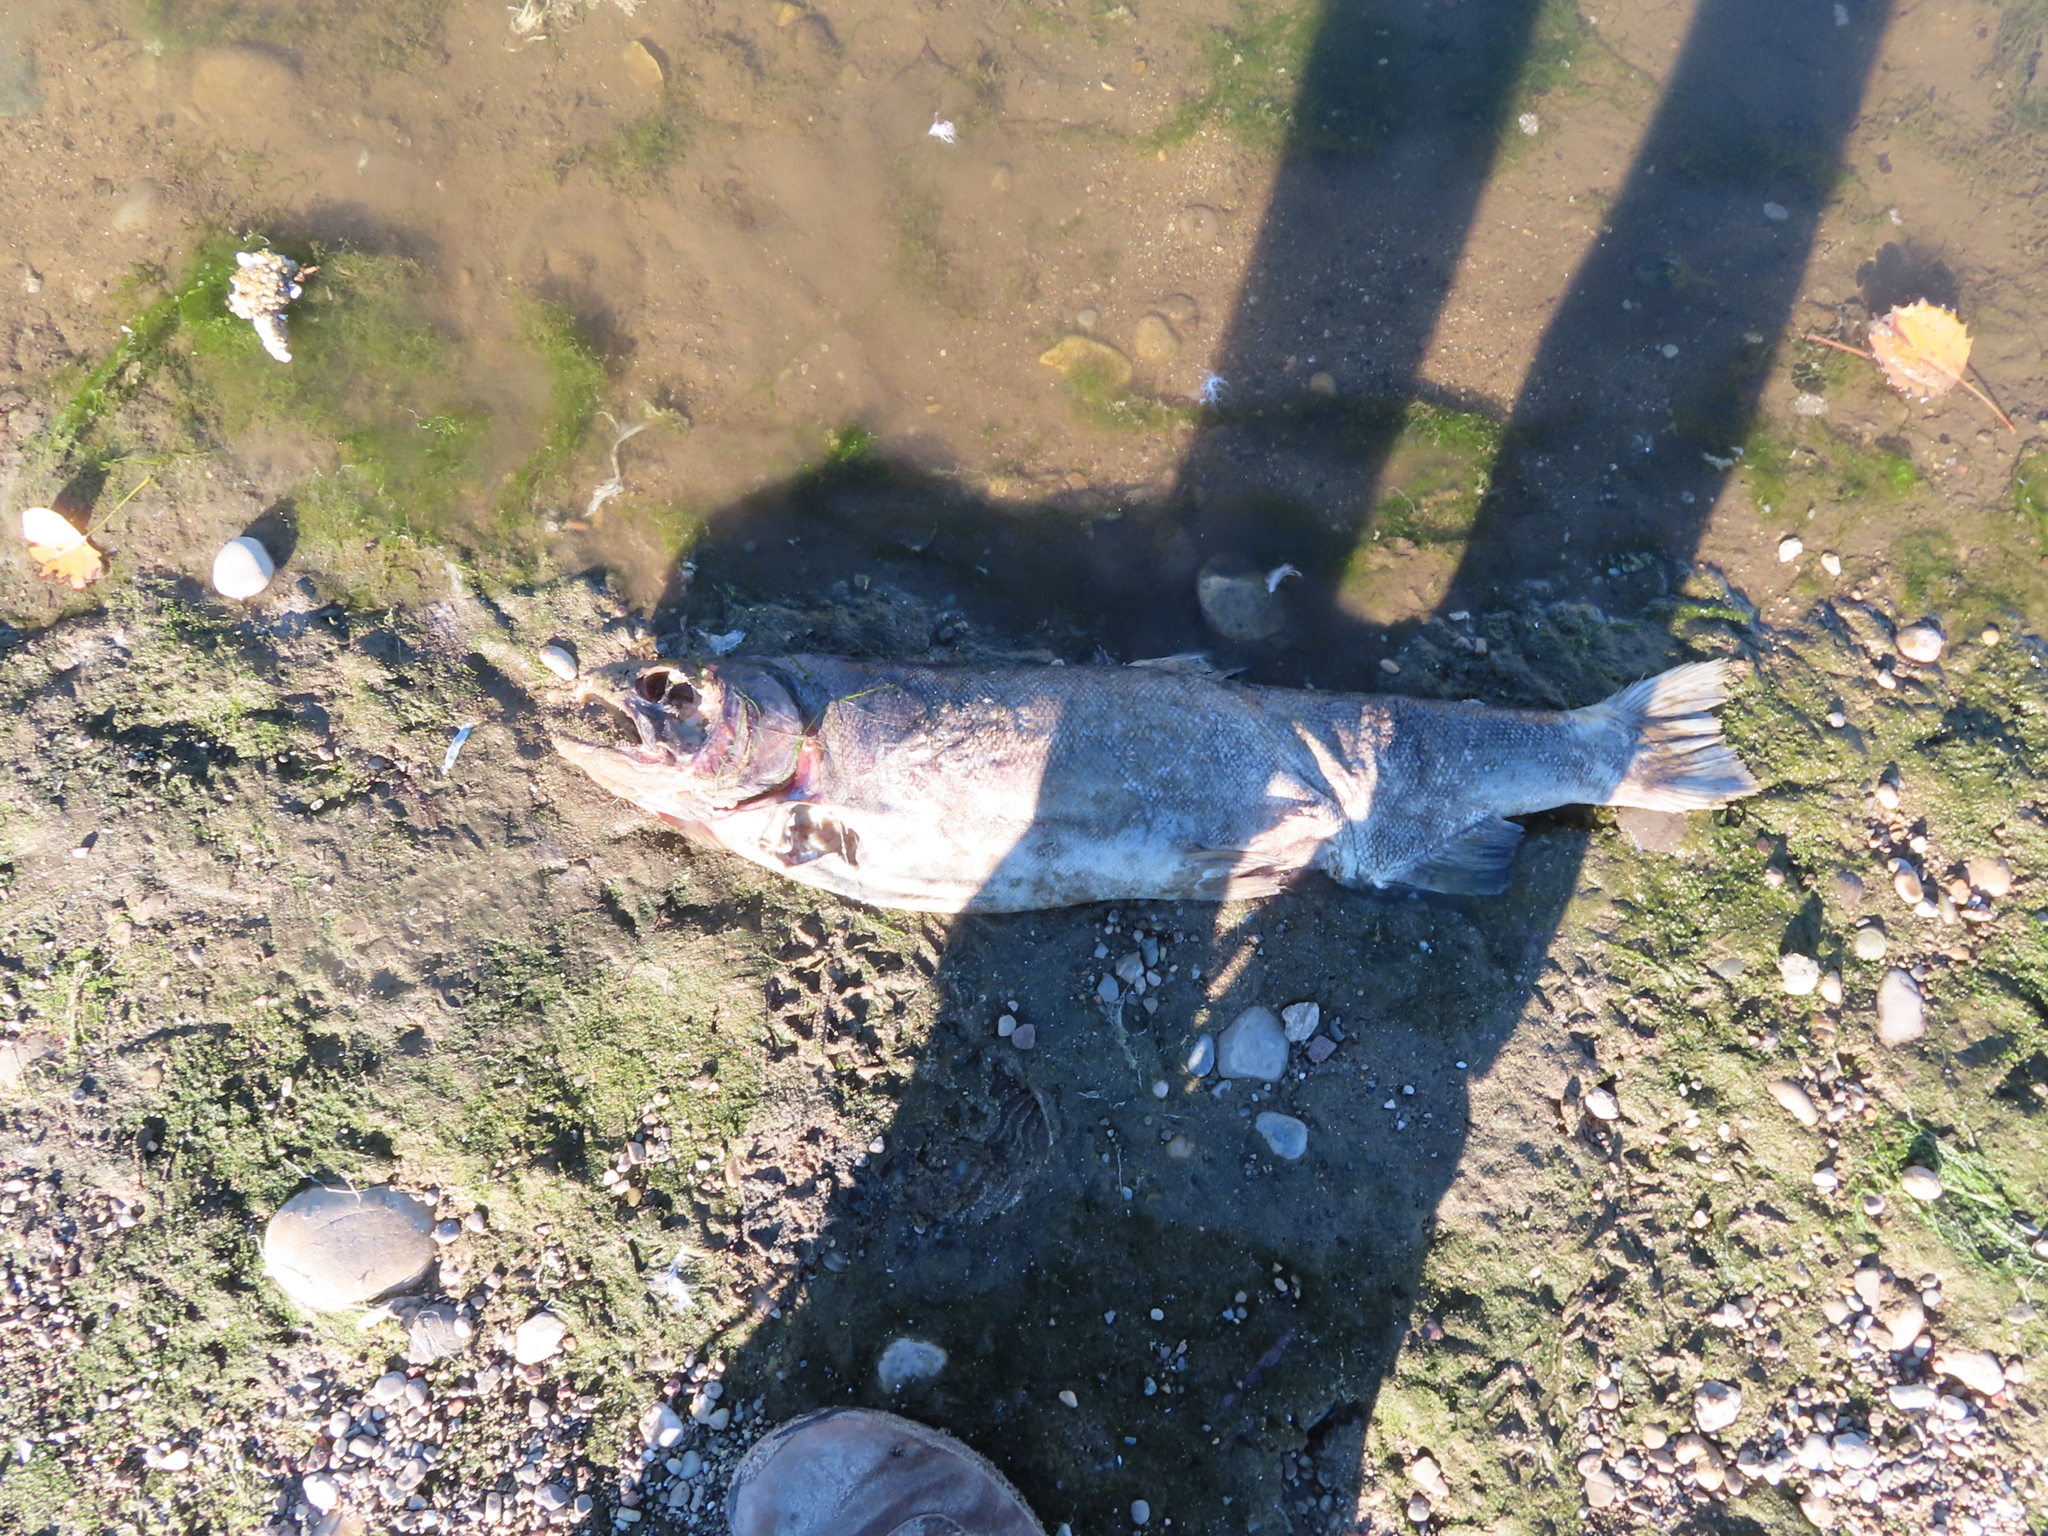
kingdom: Animalia
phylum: Chordata
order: Salmoniformes
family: Salmonidae
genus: Oncorhynchus
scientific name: Oncorhynchus tshawytscha
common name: Chinook salmon
